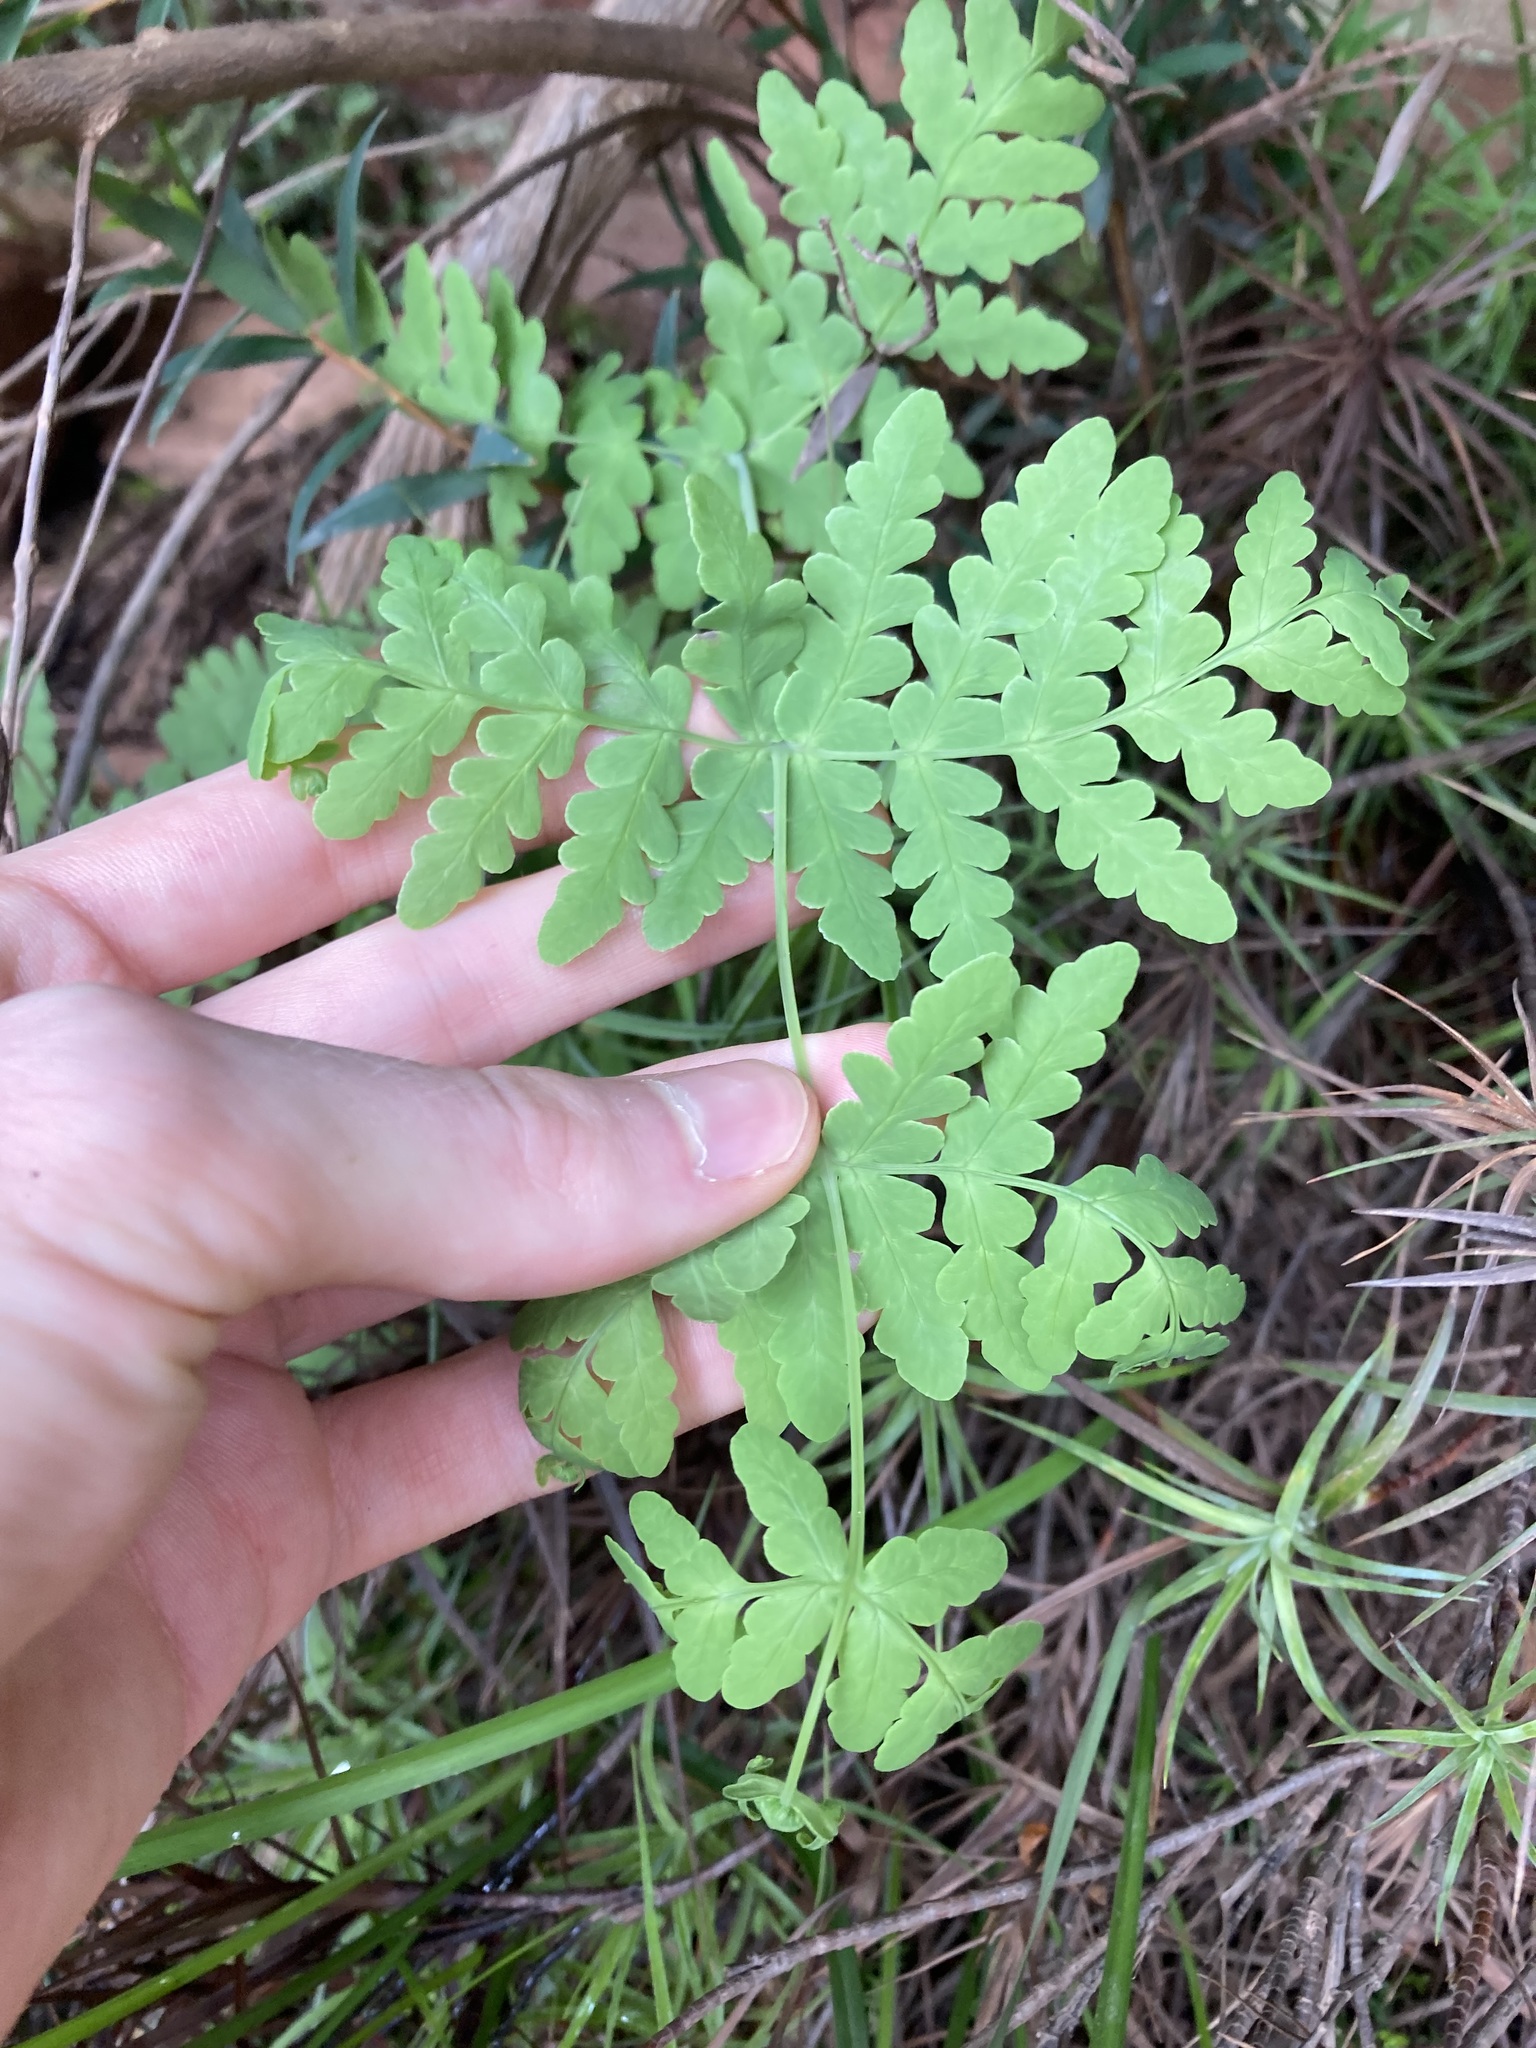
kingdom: Plantae
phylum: Tracheophyta
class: Polypodiopsida
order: Polypodiales
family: Dennstaedtiaceae
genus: Histiopteris
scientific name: Histiopteris incisa
